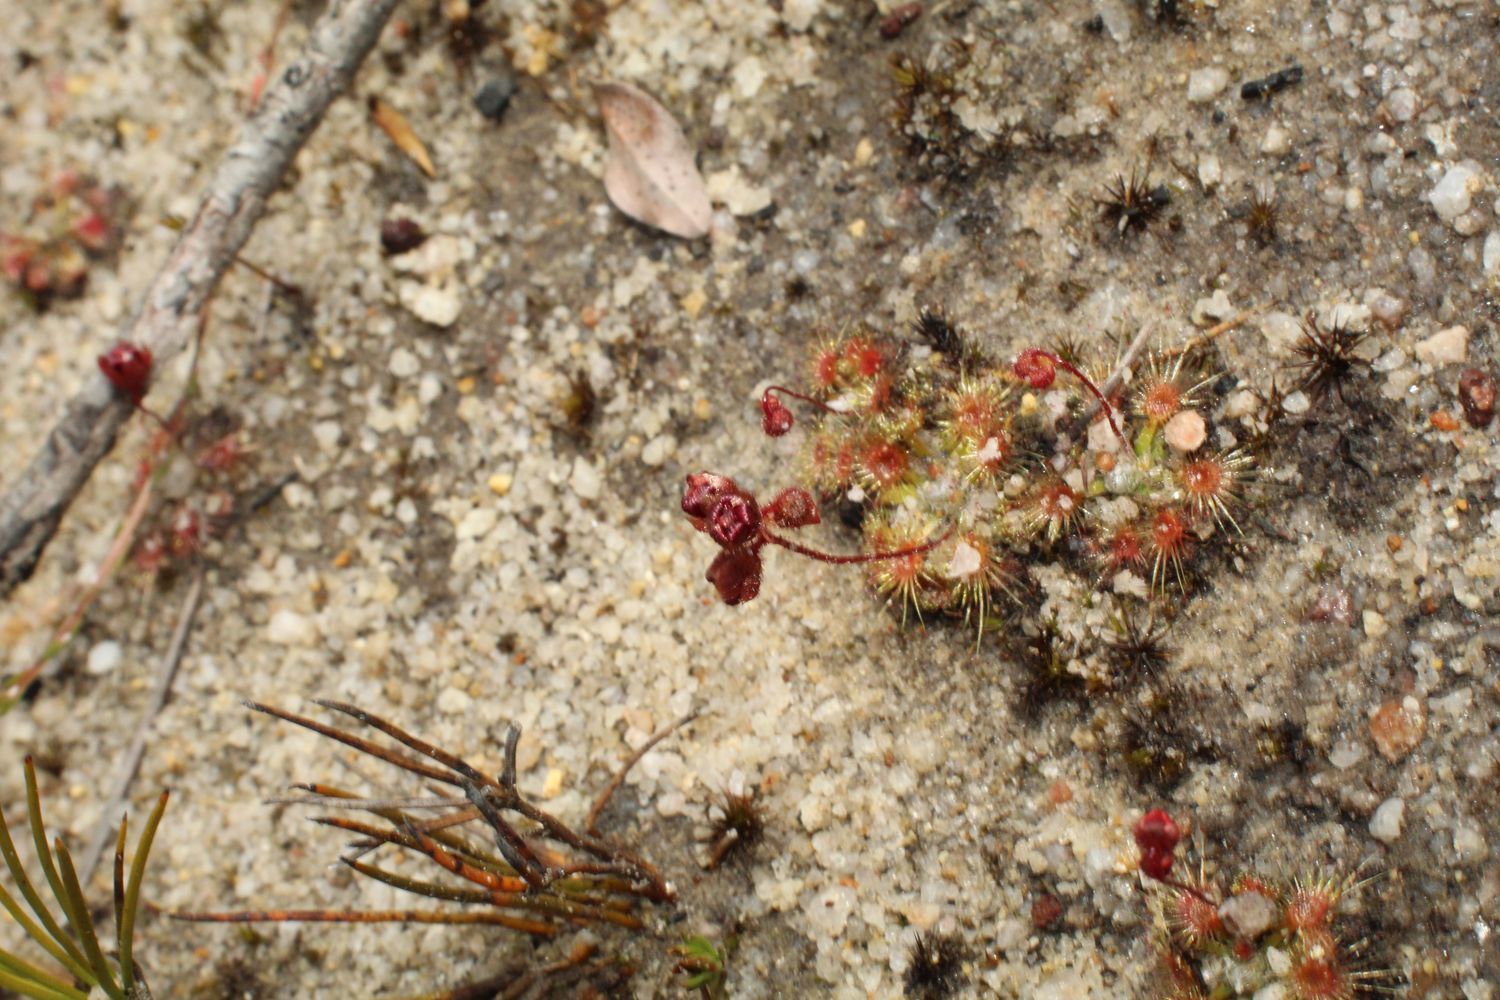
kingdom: Plantae
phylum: Tracheophyta
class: Magnoliopsida
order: Caryophyllales
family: Droseraceae
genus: Drosera
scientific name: Drosera platystigma
